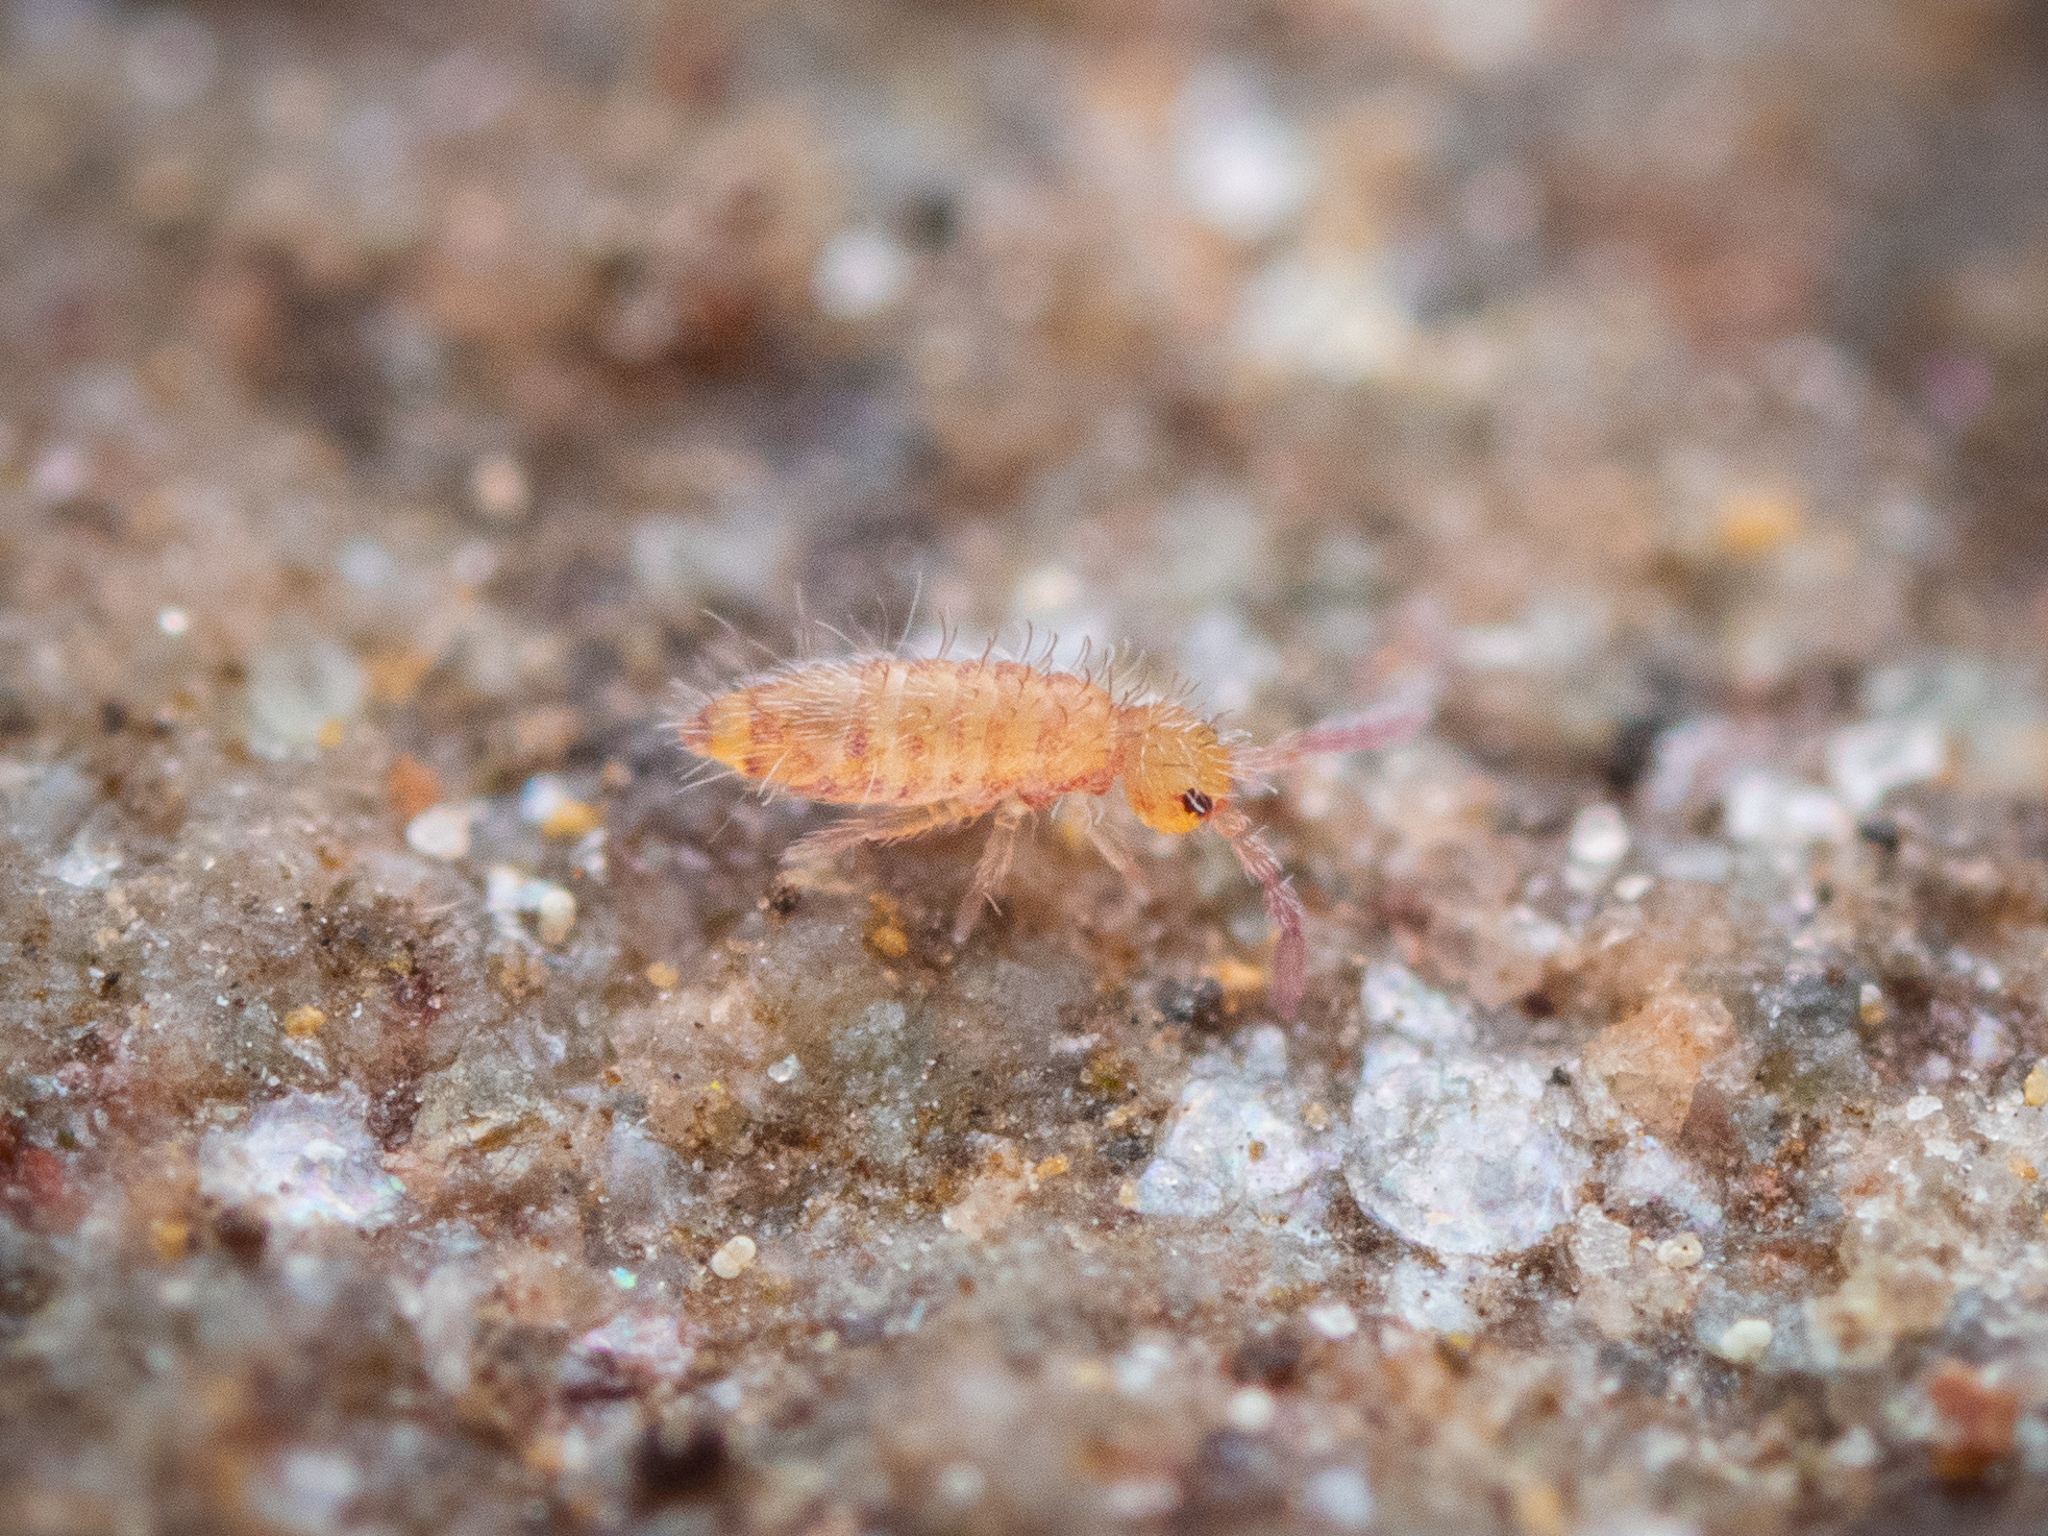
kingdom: Animalia
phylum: Arthropoda
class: Collembola
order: Entomobryomorpha
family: Entomobryidae
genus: Entomobrya
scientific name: Entomobrya multifasciata
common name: Springtail
